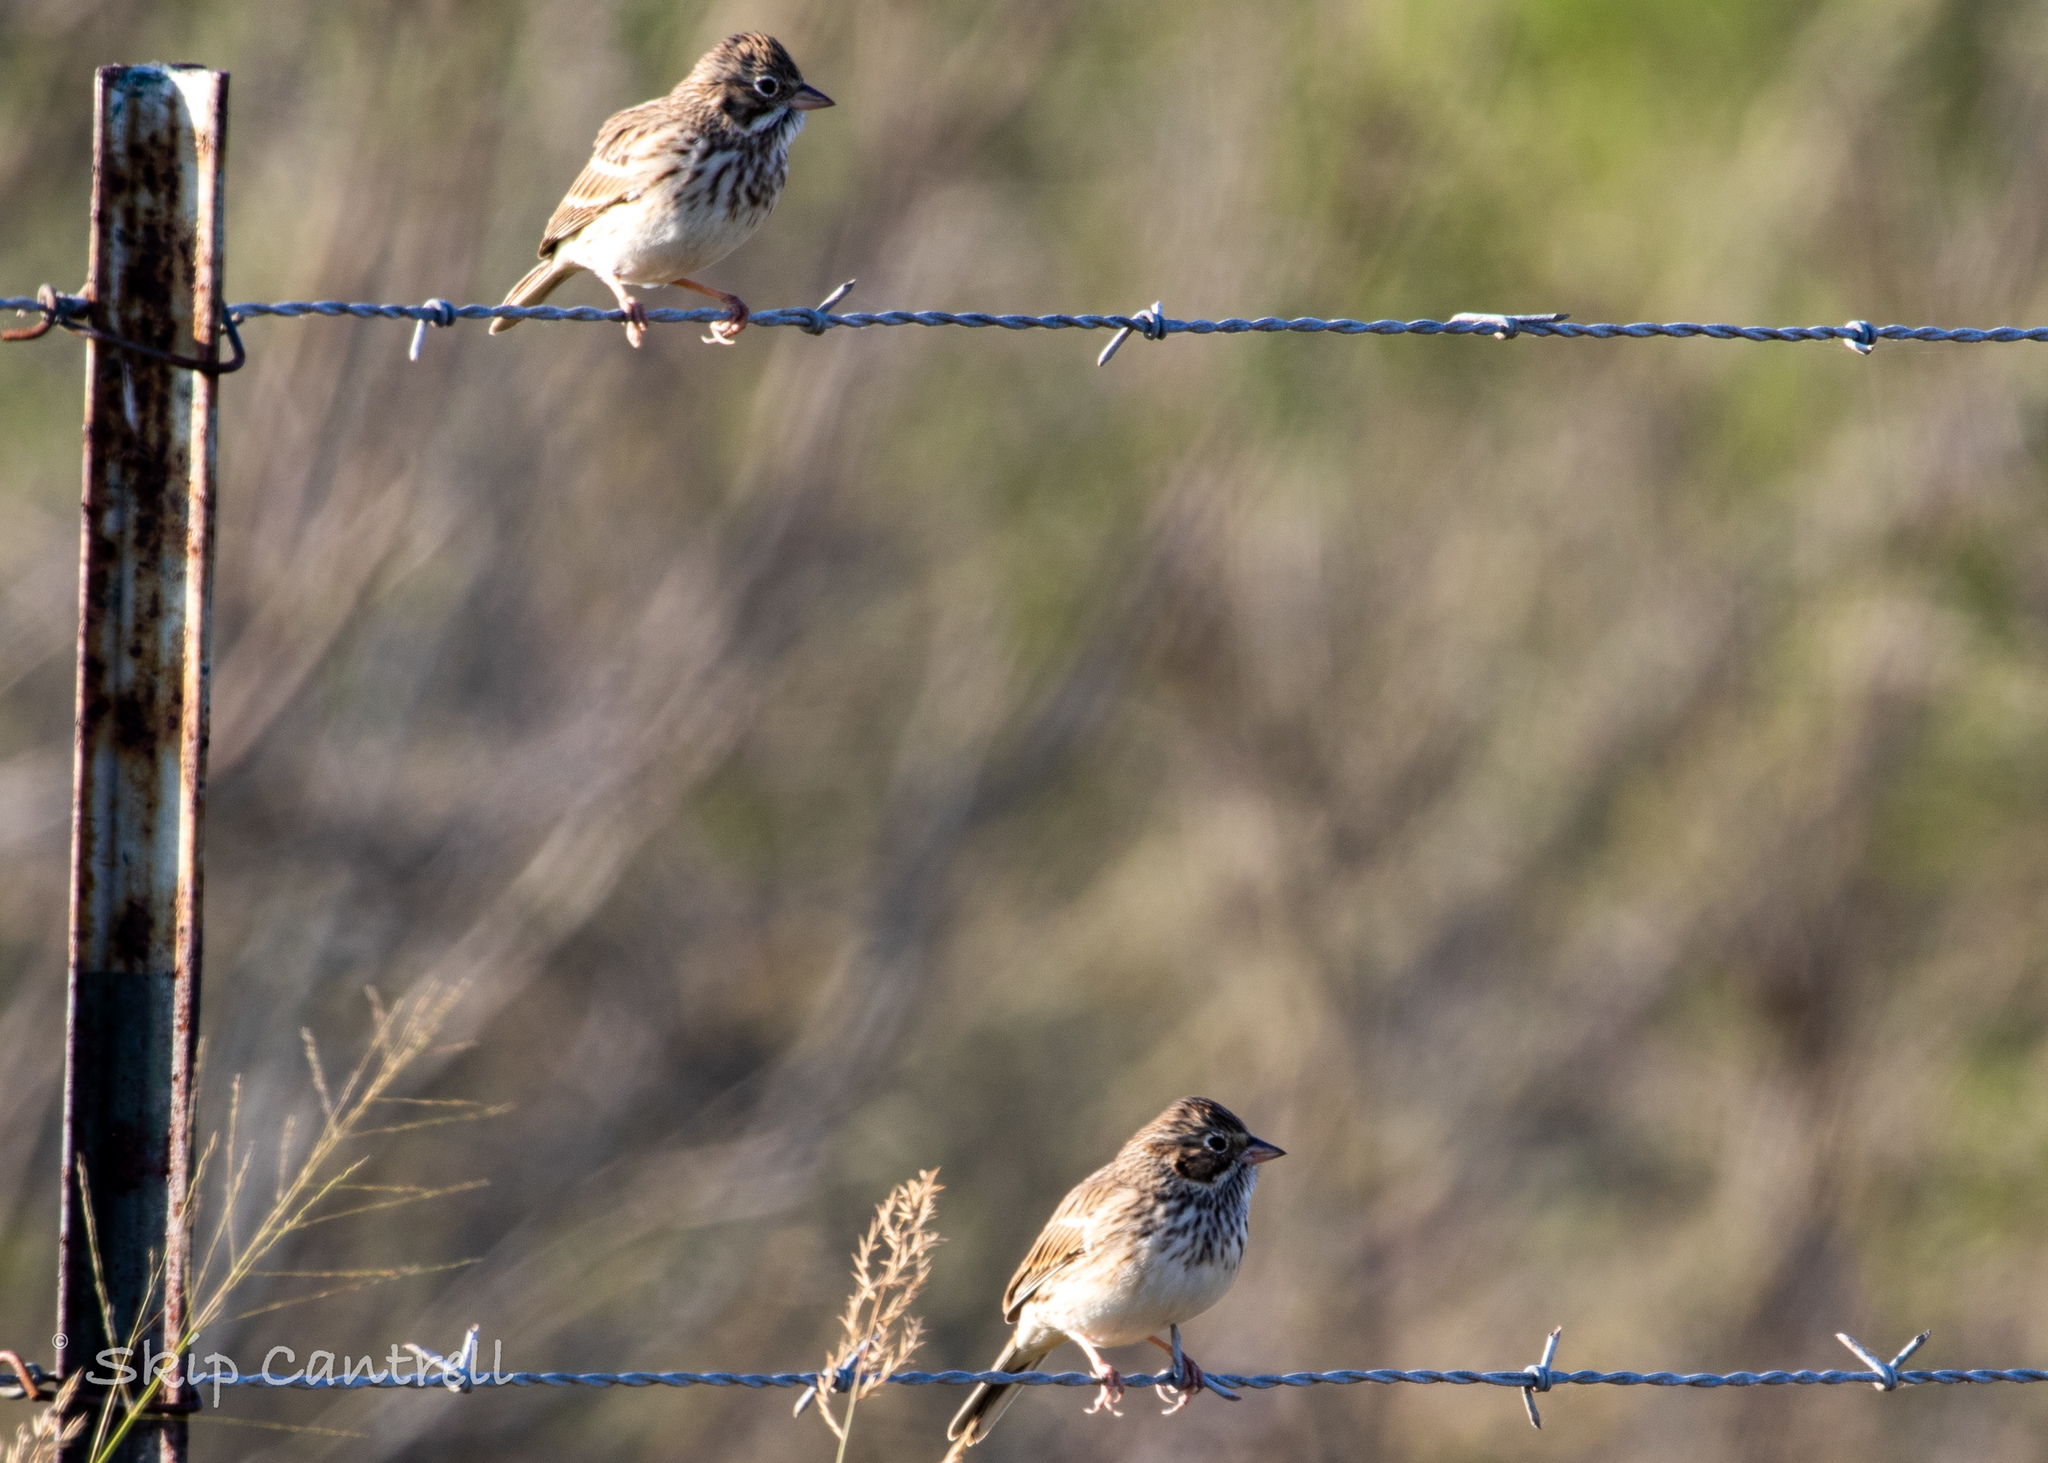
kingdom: Animalia
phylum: Chordata
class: Aves
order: Passeriformes
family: Passerellidae
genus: Pooecetes
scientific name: Pooecetes gramineus
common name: Vesper sparrow
